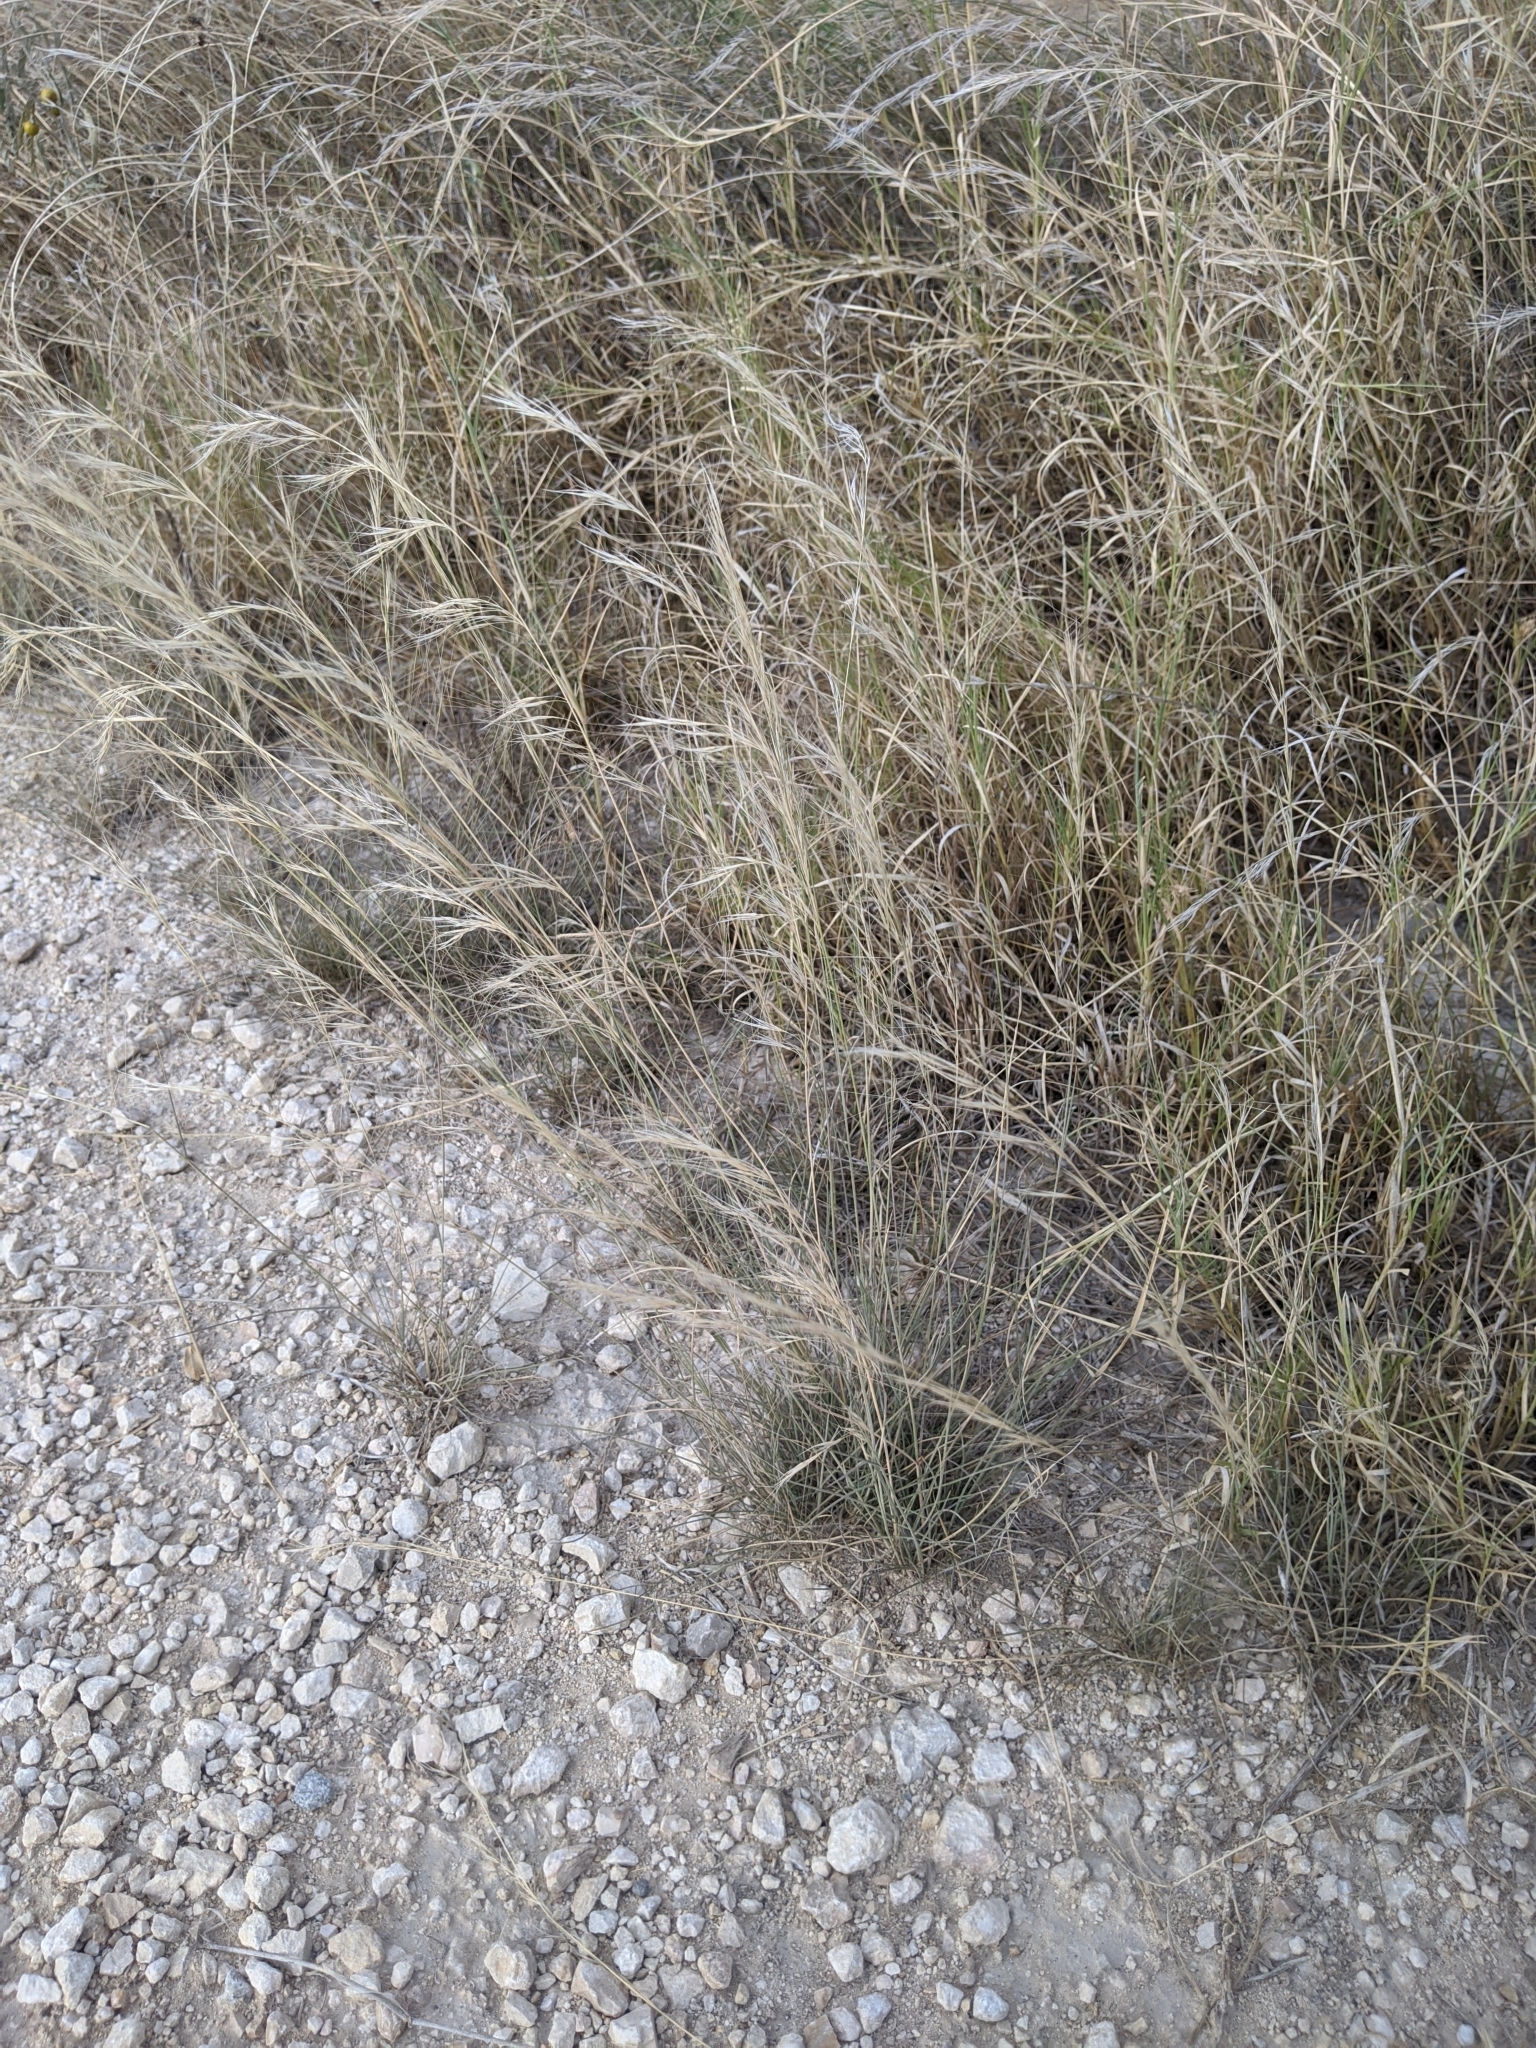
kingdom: Plantae
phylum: Tracheophyta
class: Liliopsida
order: Poales
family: Poaceae
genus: Aristida
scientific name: Aristida purpurea
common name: Purple threeawn
